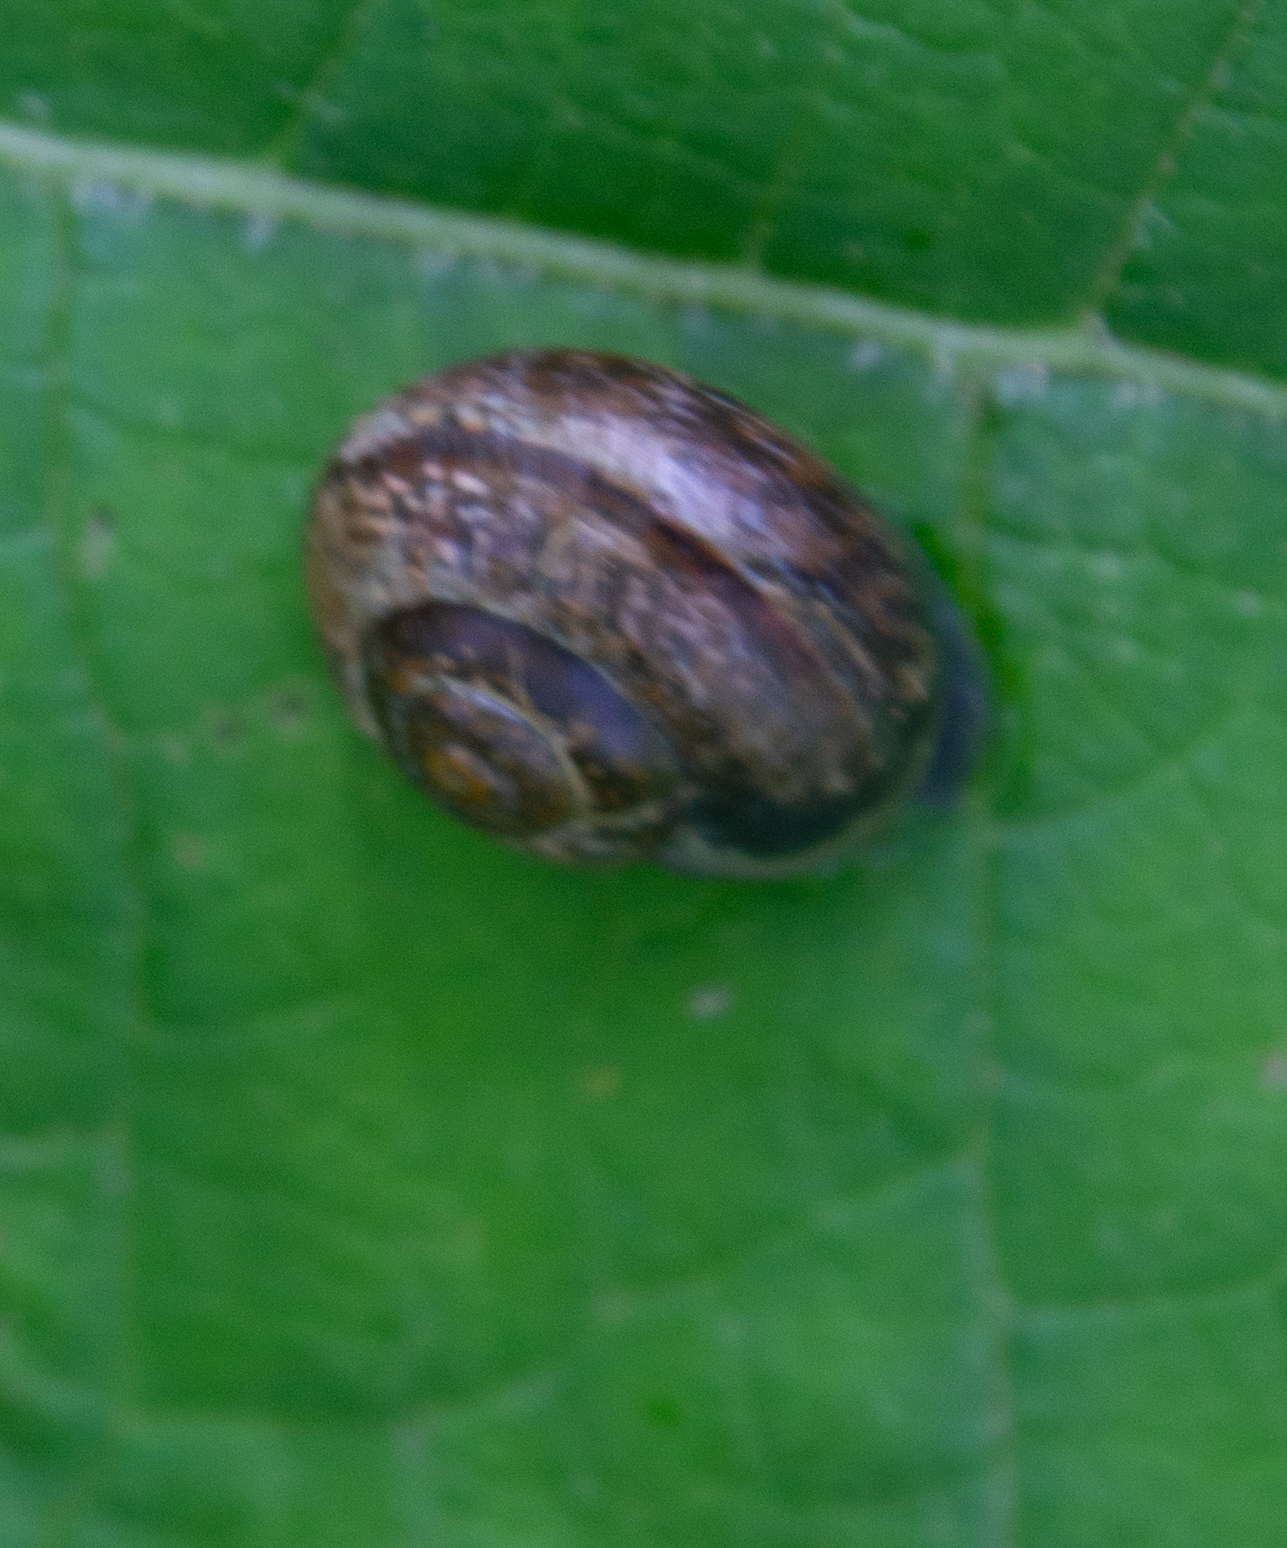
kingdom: Animalia
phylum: Mollusca
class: Gastropoda
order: Stylommatophora
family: Helicidae
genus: Arianta
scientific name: Arianta arbustorum
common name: Copse snail
